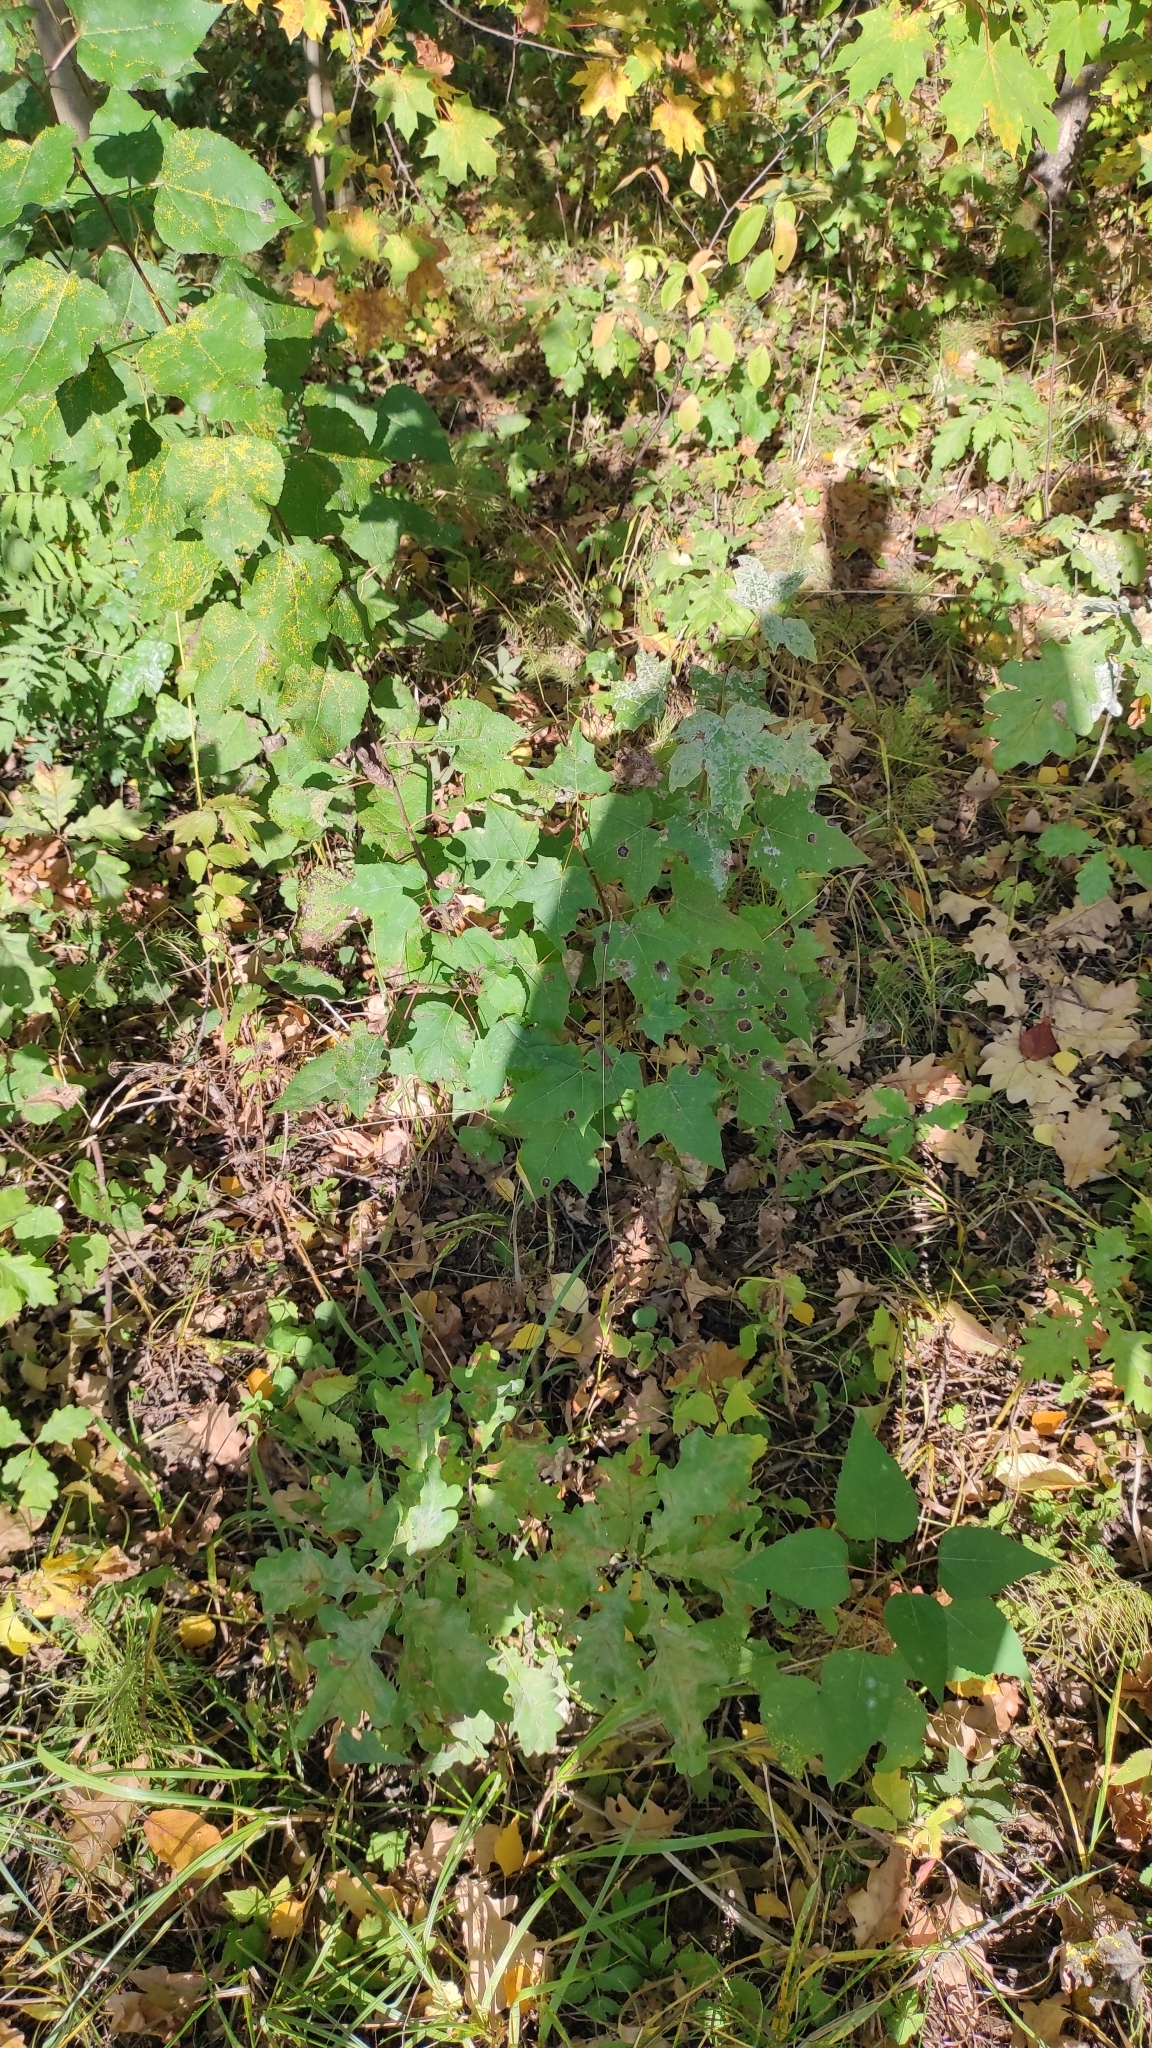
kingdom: Plantae
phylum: Tracheophyta
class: Magnoliopsida
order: Sapindales
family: Sapindaceae
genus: Acer
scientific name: Acer platanoides
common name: Norway maple
